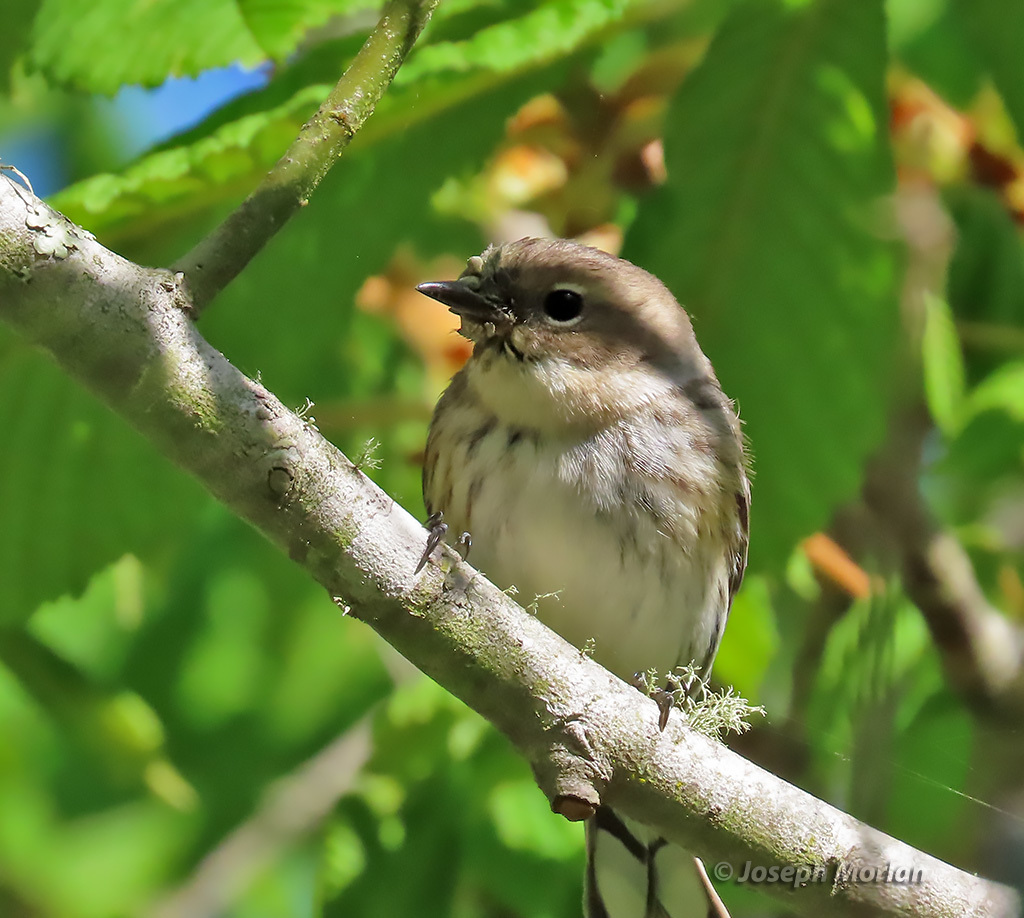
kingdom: Animalia
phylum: Chordata
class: Aves
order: Passeriformes
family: Parulidae
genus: Setophaga
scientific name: Setophaga coronata
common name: Myrtle warbler
